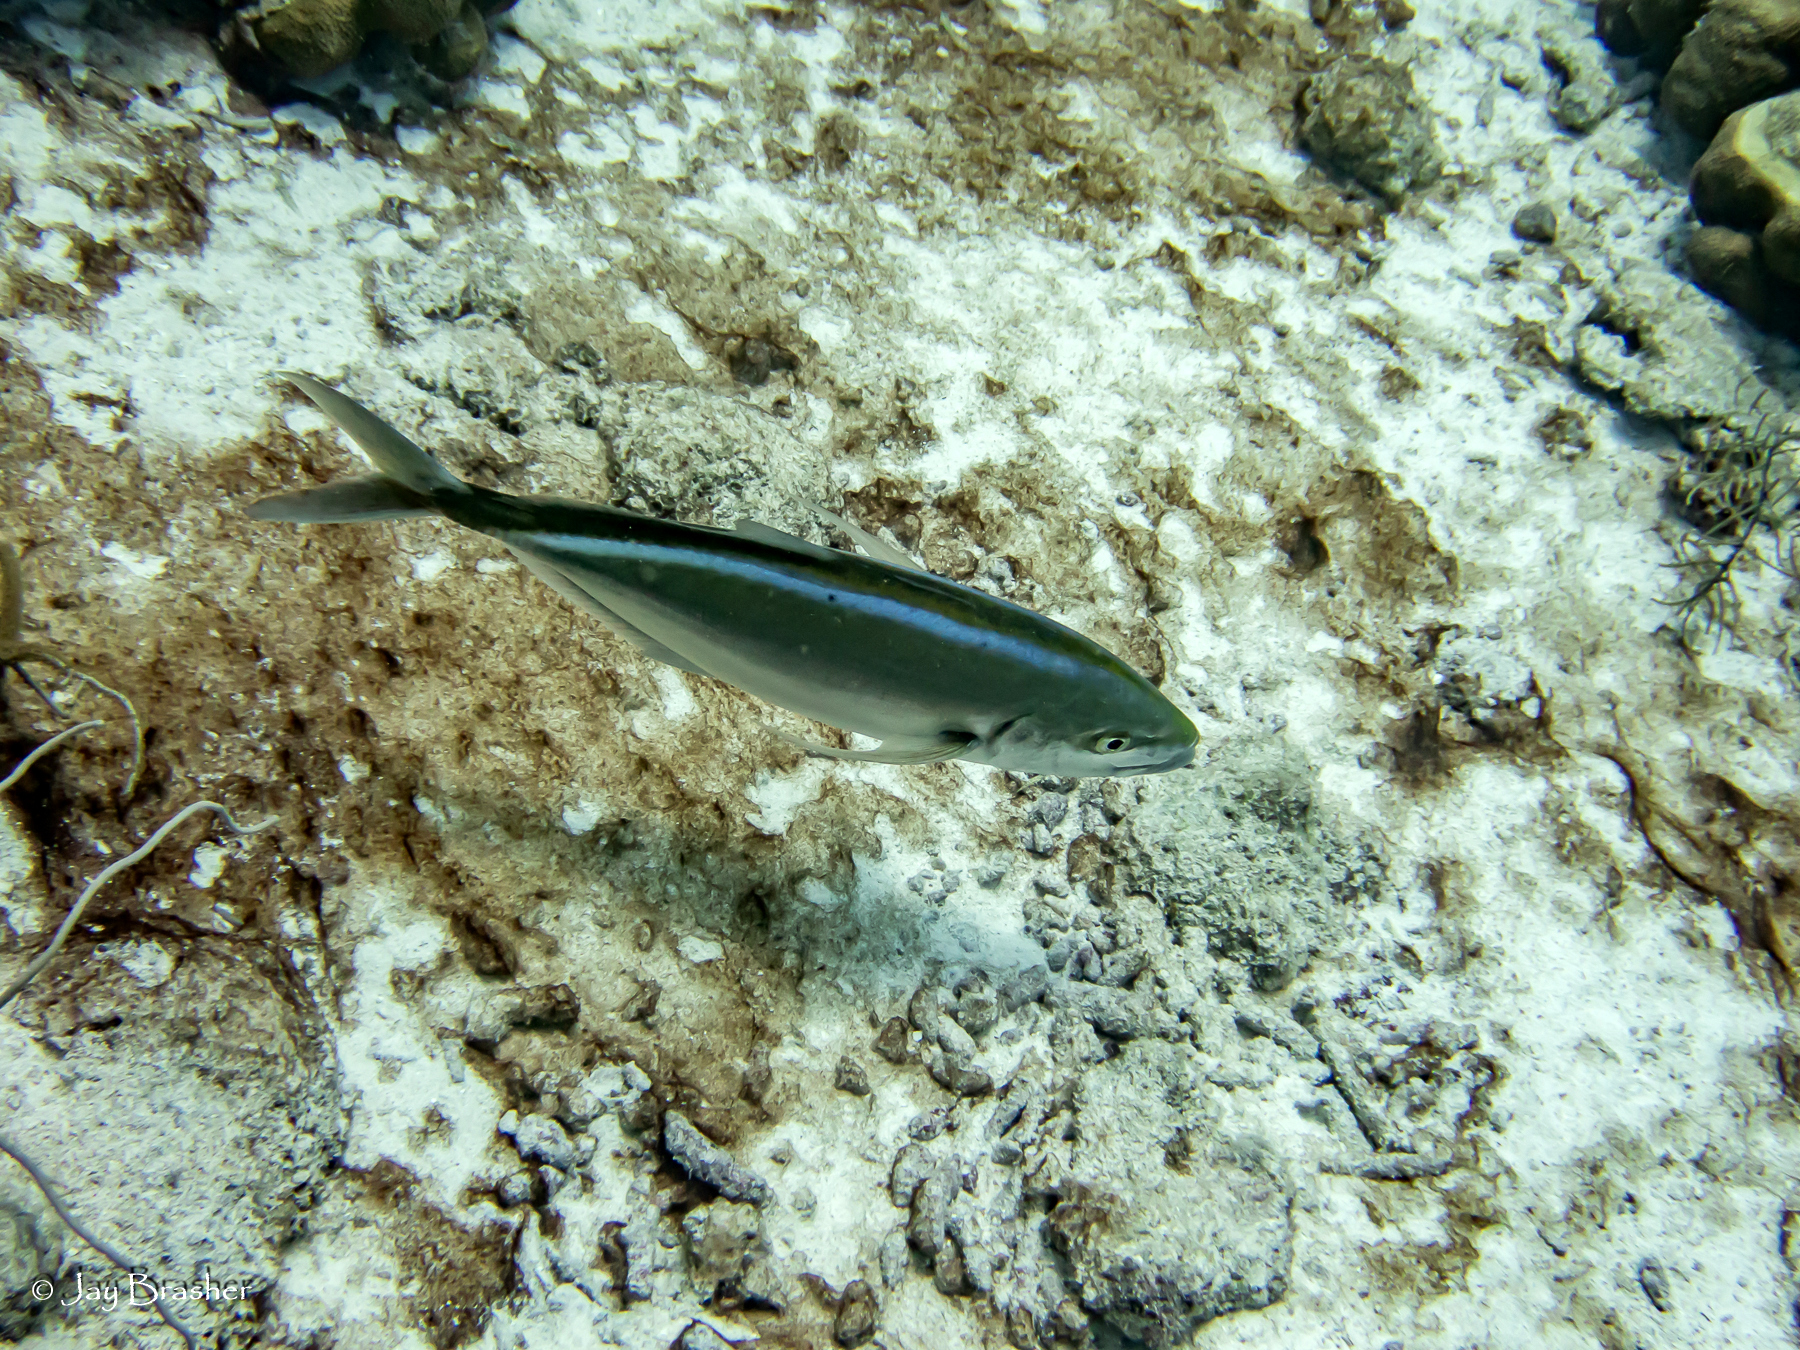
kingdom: Animalia
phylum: Chordata
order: Perciformes
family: Carangidae
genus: Caranx
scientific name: Caranx ruber
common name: Bar jack
